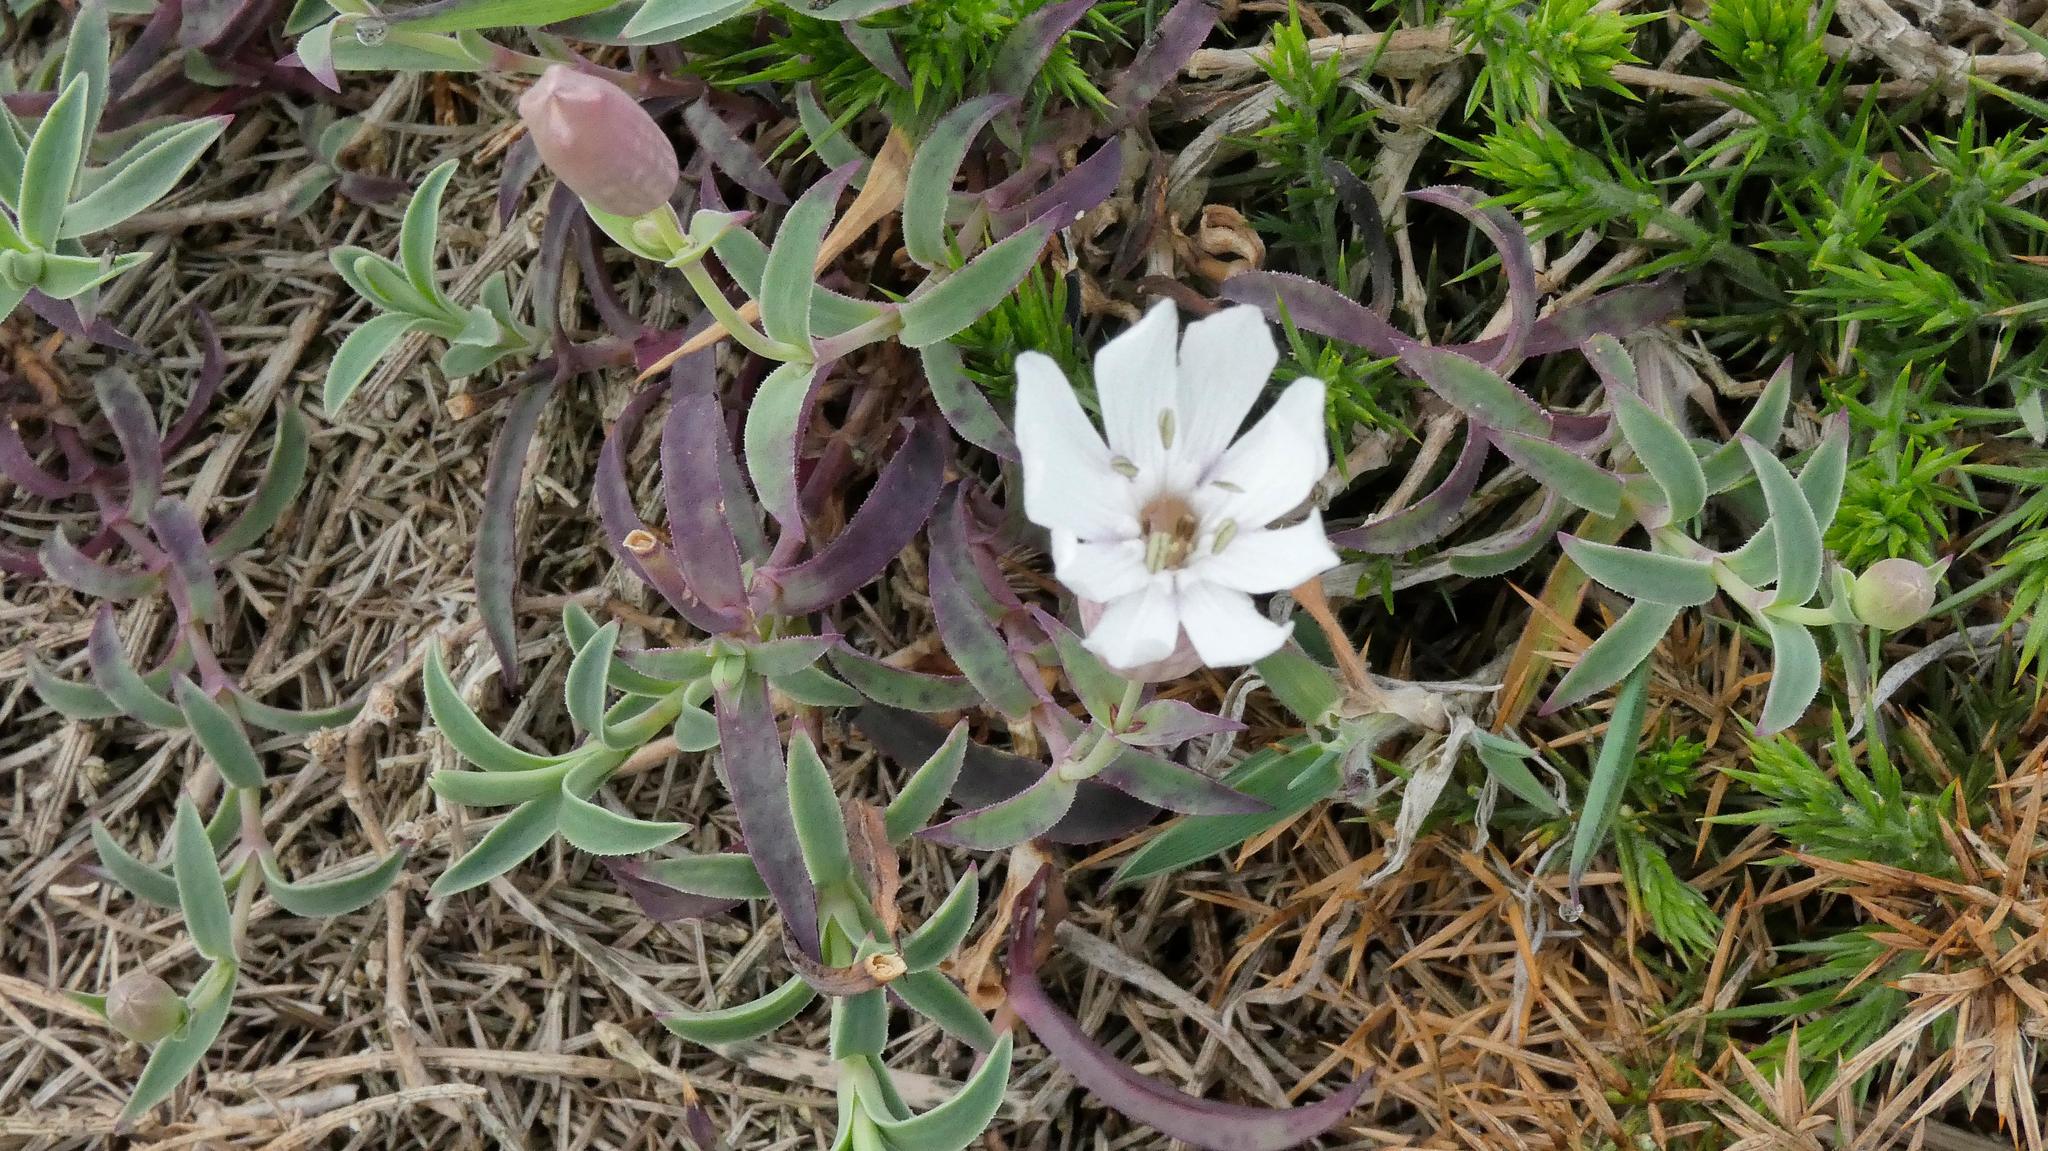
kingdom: Plantae
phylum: Tracheophyta
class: Magnoliopsida
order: Caryophyllales
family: Caryophyllaceae
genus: Silene
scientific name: Silene uniflora
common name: Sea campion
